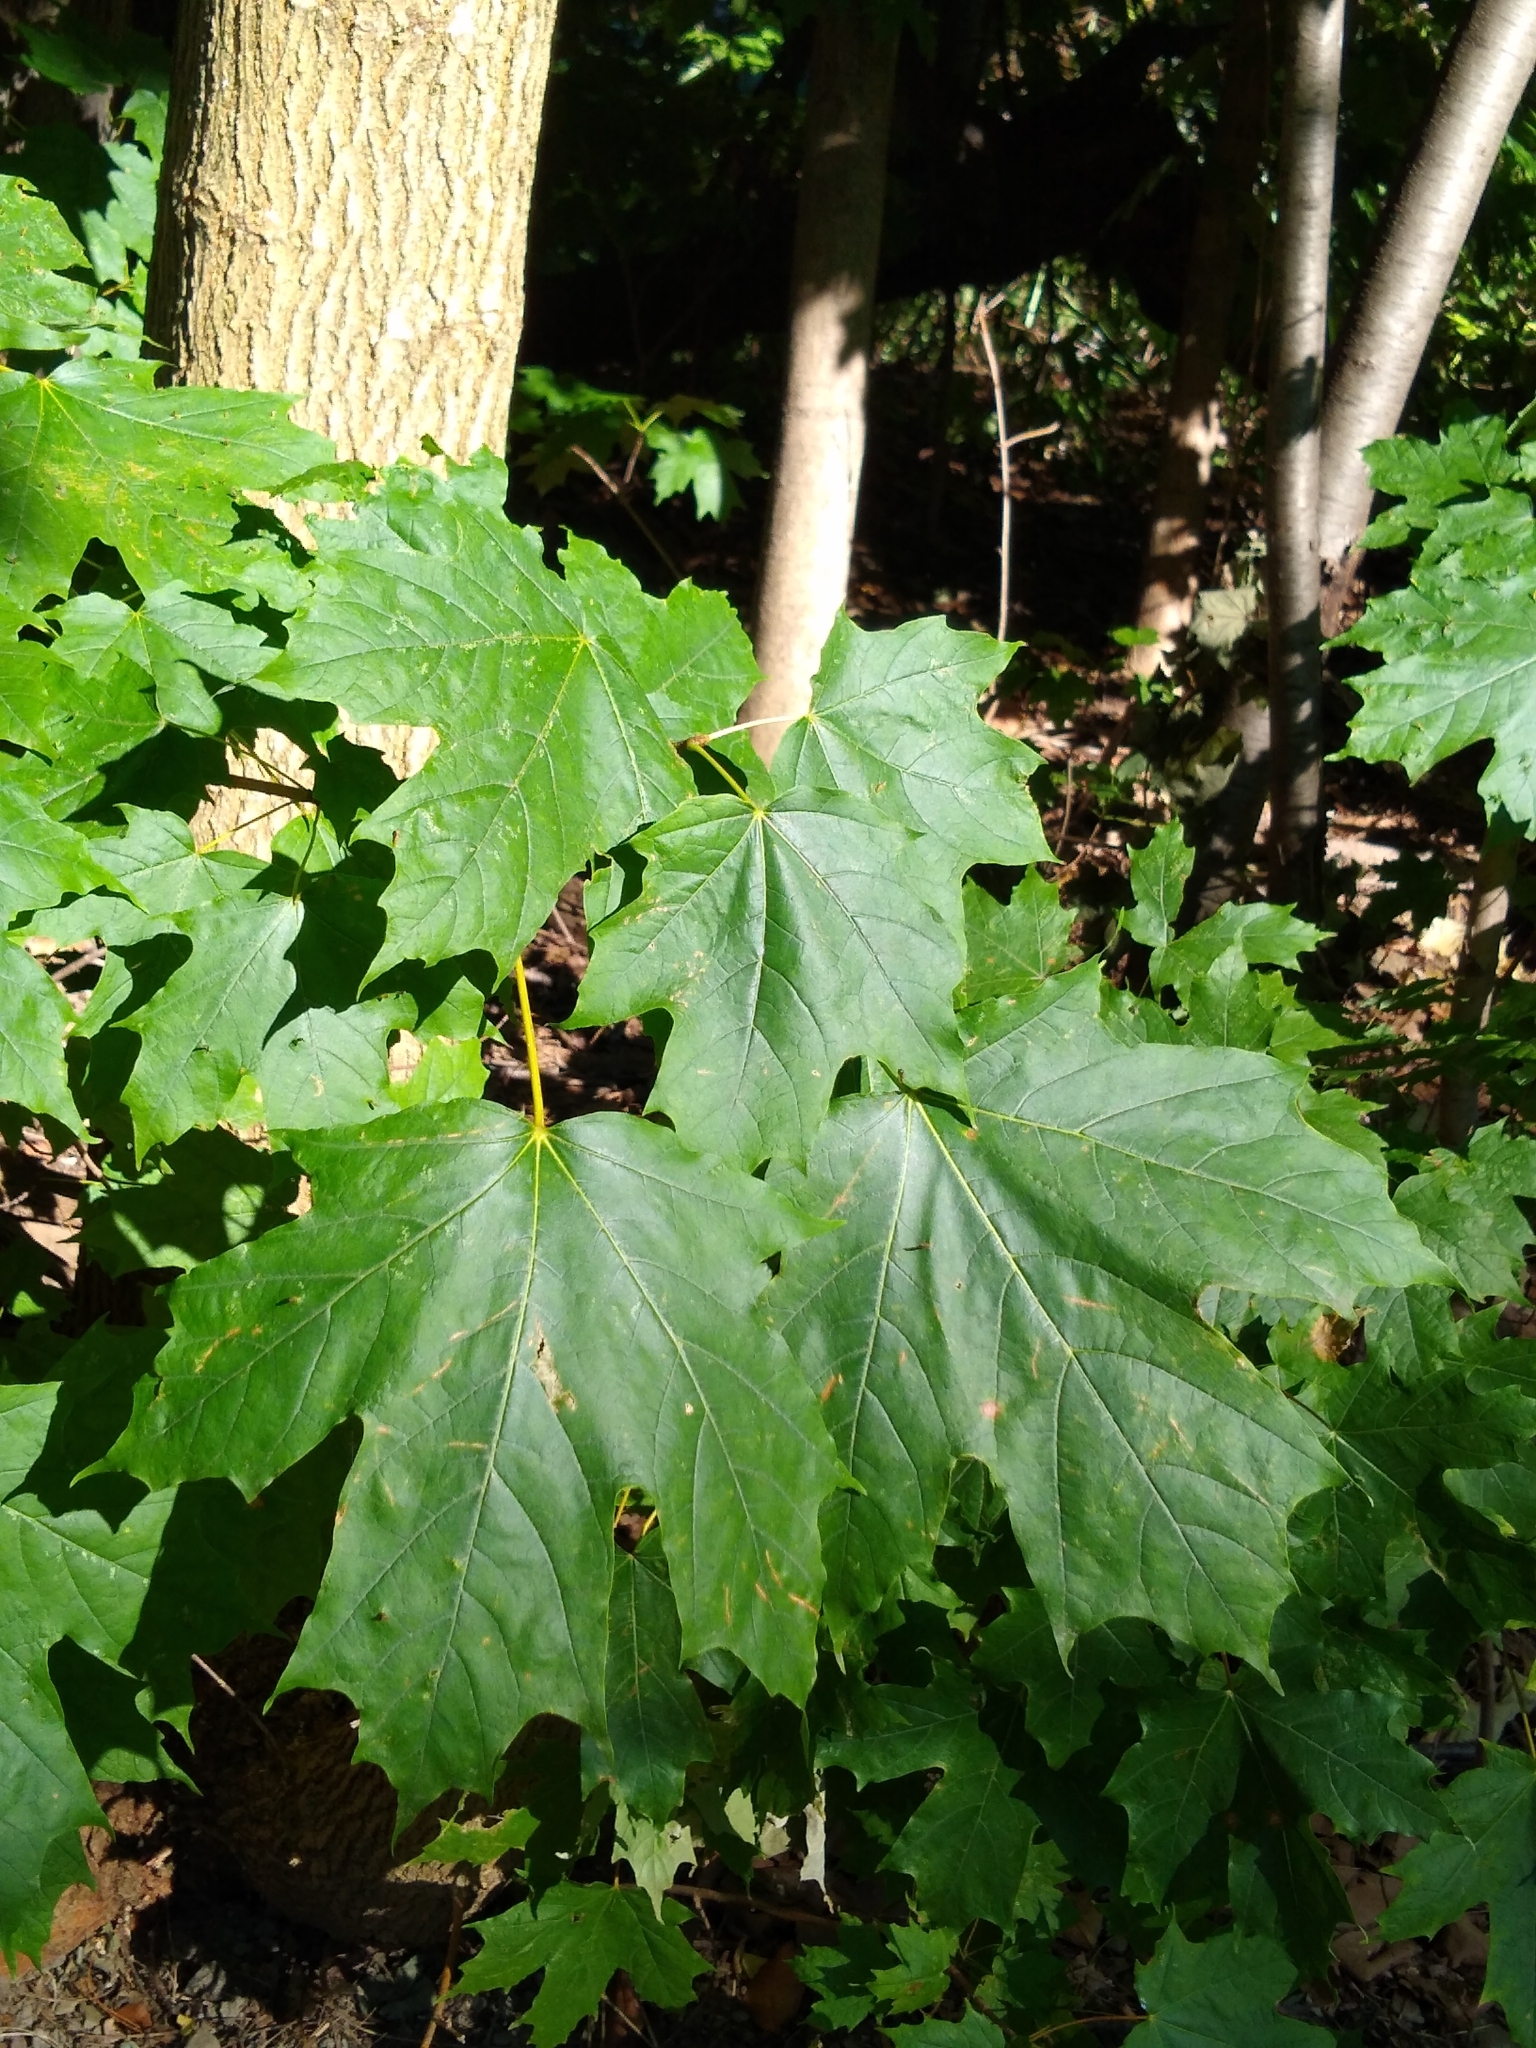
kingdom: Plantae
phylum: Tracheophyta
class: Magnoliopsida
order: Sapindales
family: Sapindaceae
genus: Acer
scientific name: Acer saccharum
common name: Sugar maple
